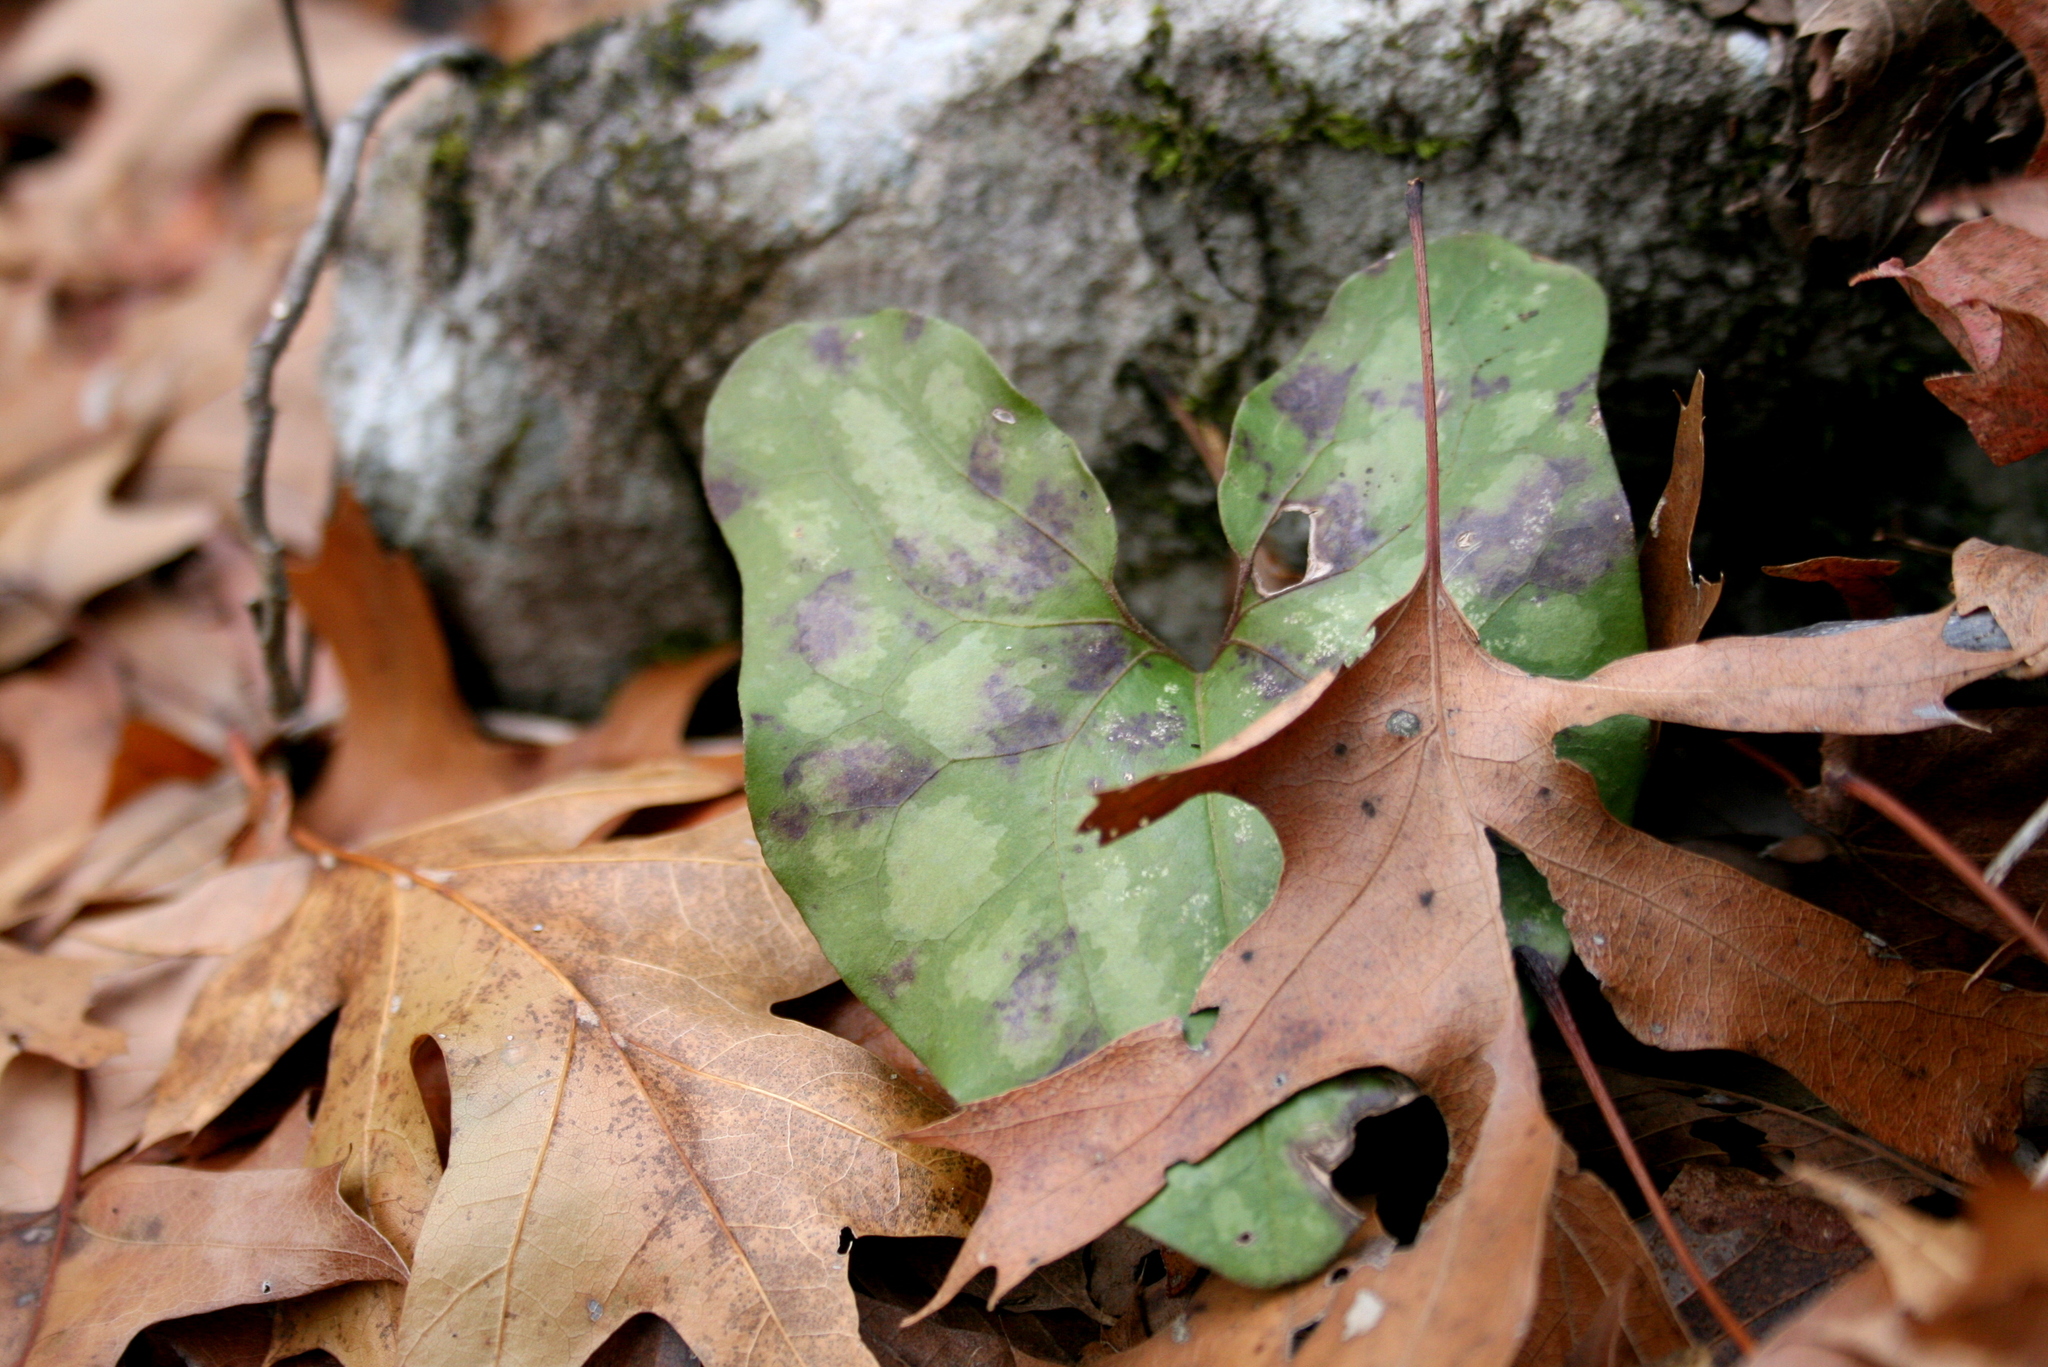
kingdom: Plantae
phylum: Tracheophyta
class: Magnoliopsida
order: Piperales
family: Aristolochiaceae
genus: Hexastylis
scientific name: Hexastylis arifolia
